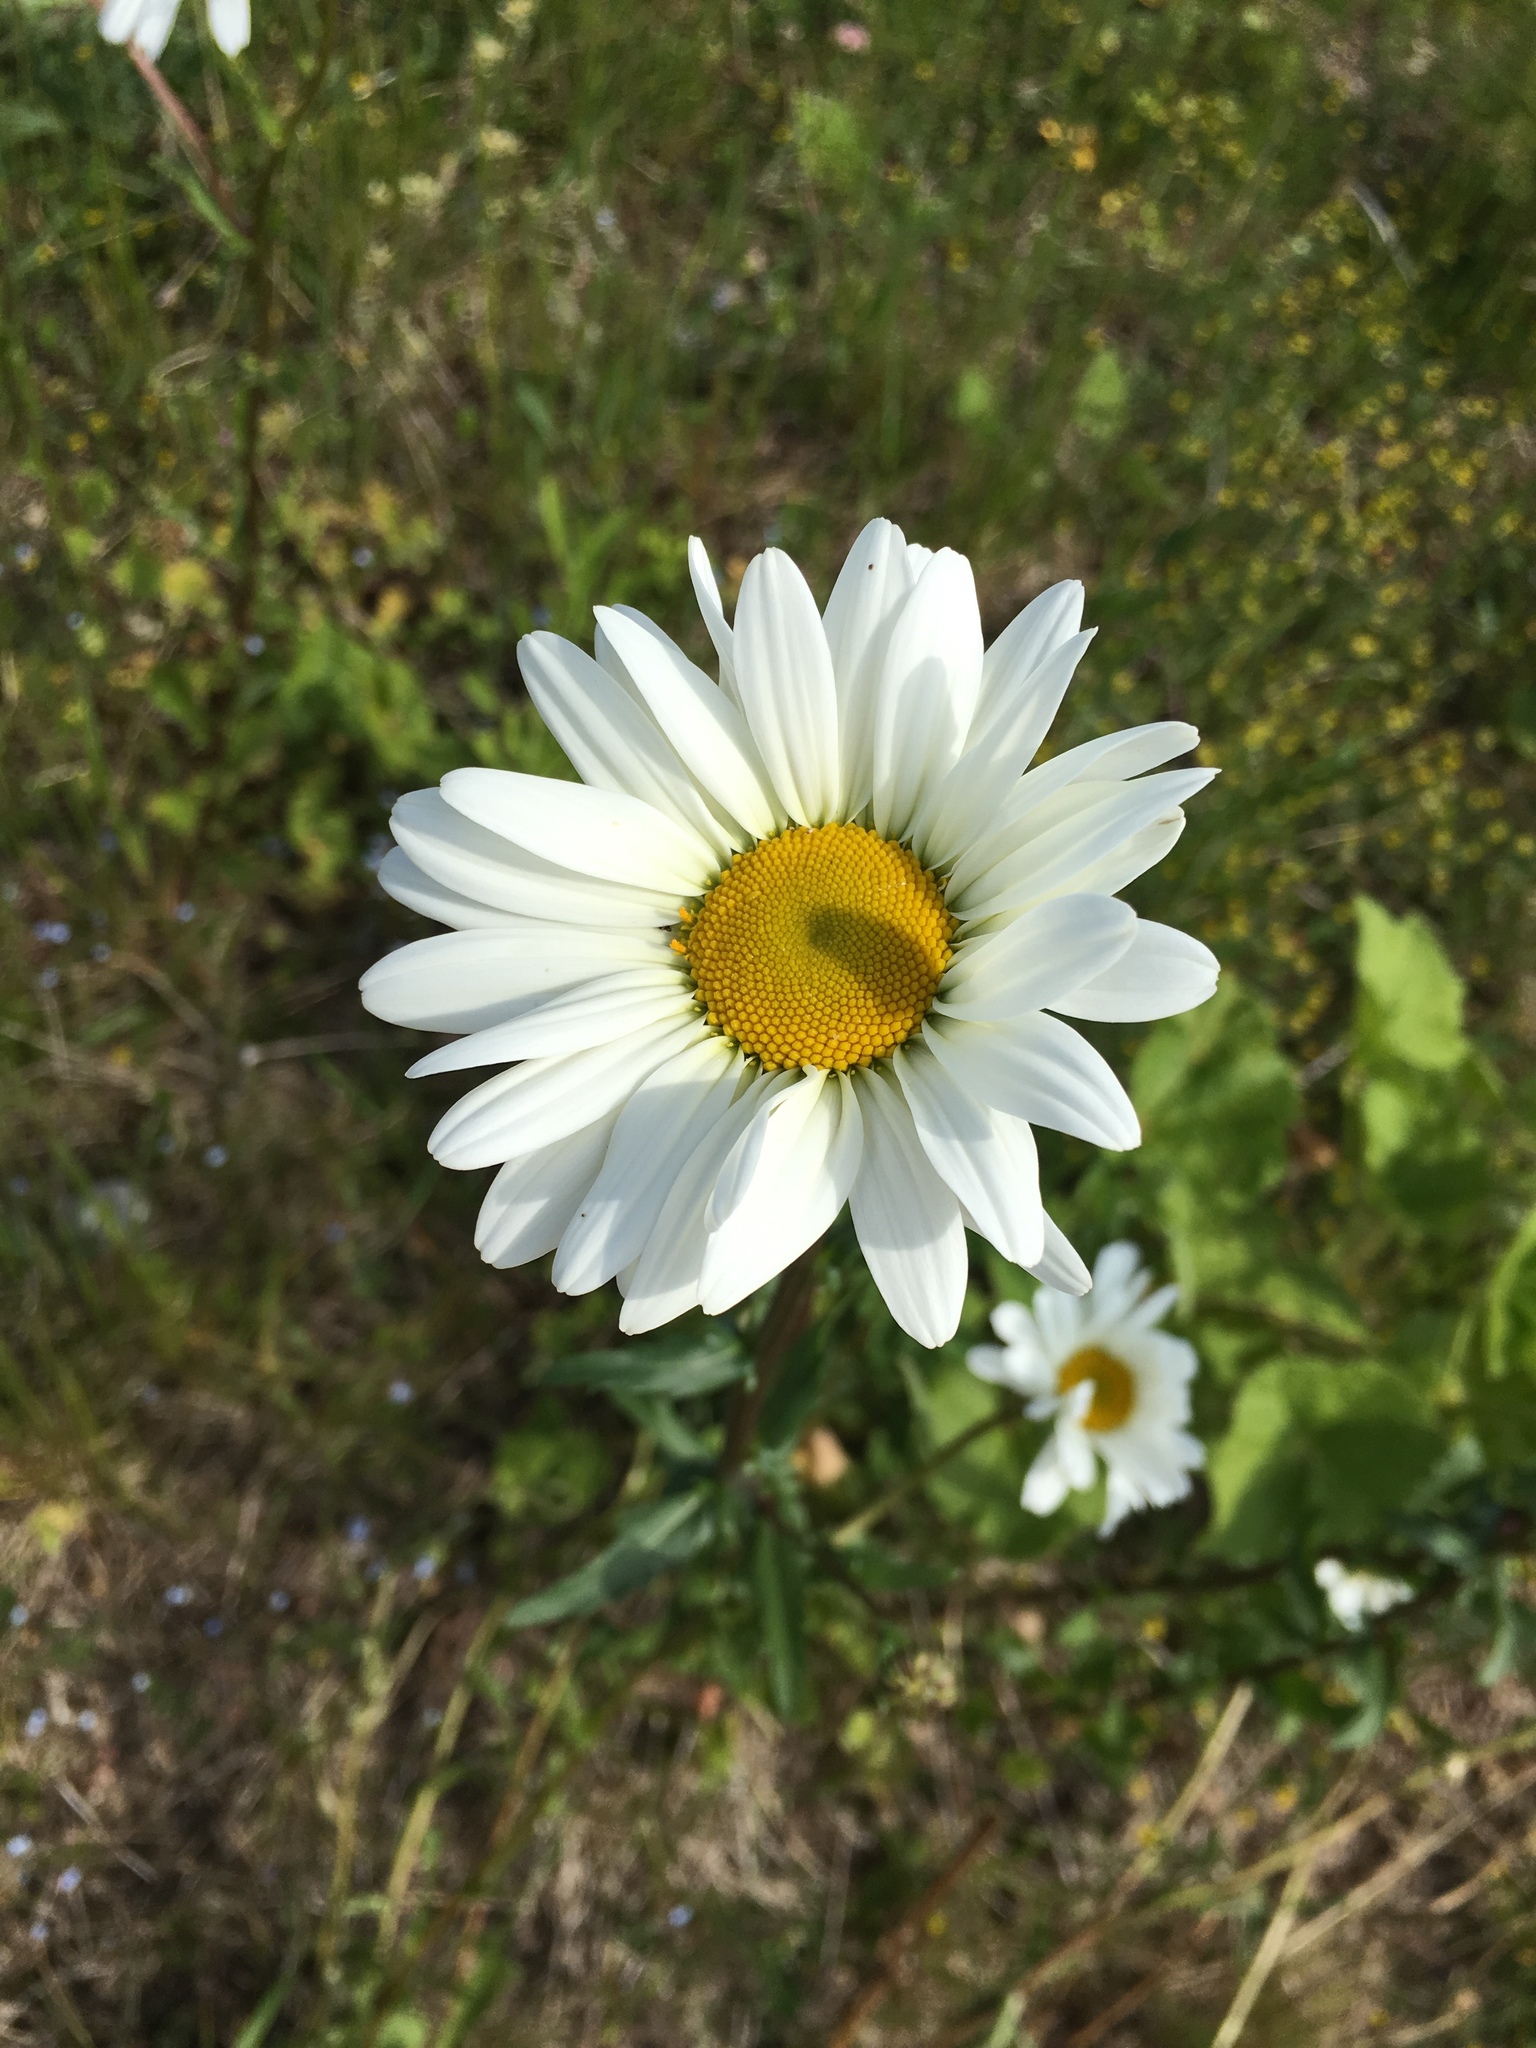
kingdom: Plantae
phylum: Tracheophyta
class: Magnoliopsida
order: Asterales
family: Asteraceae
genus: Leucanthemum
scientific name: Leucanthemum vulgare
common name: Oxeye daisy
